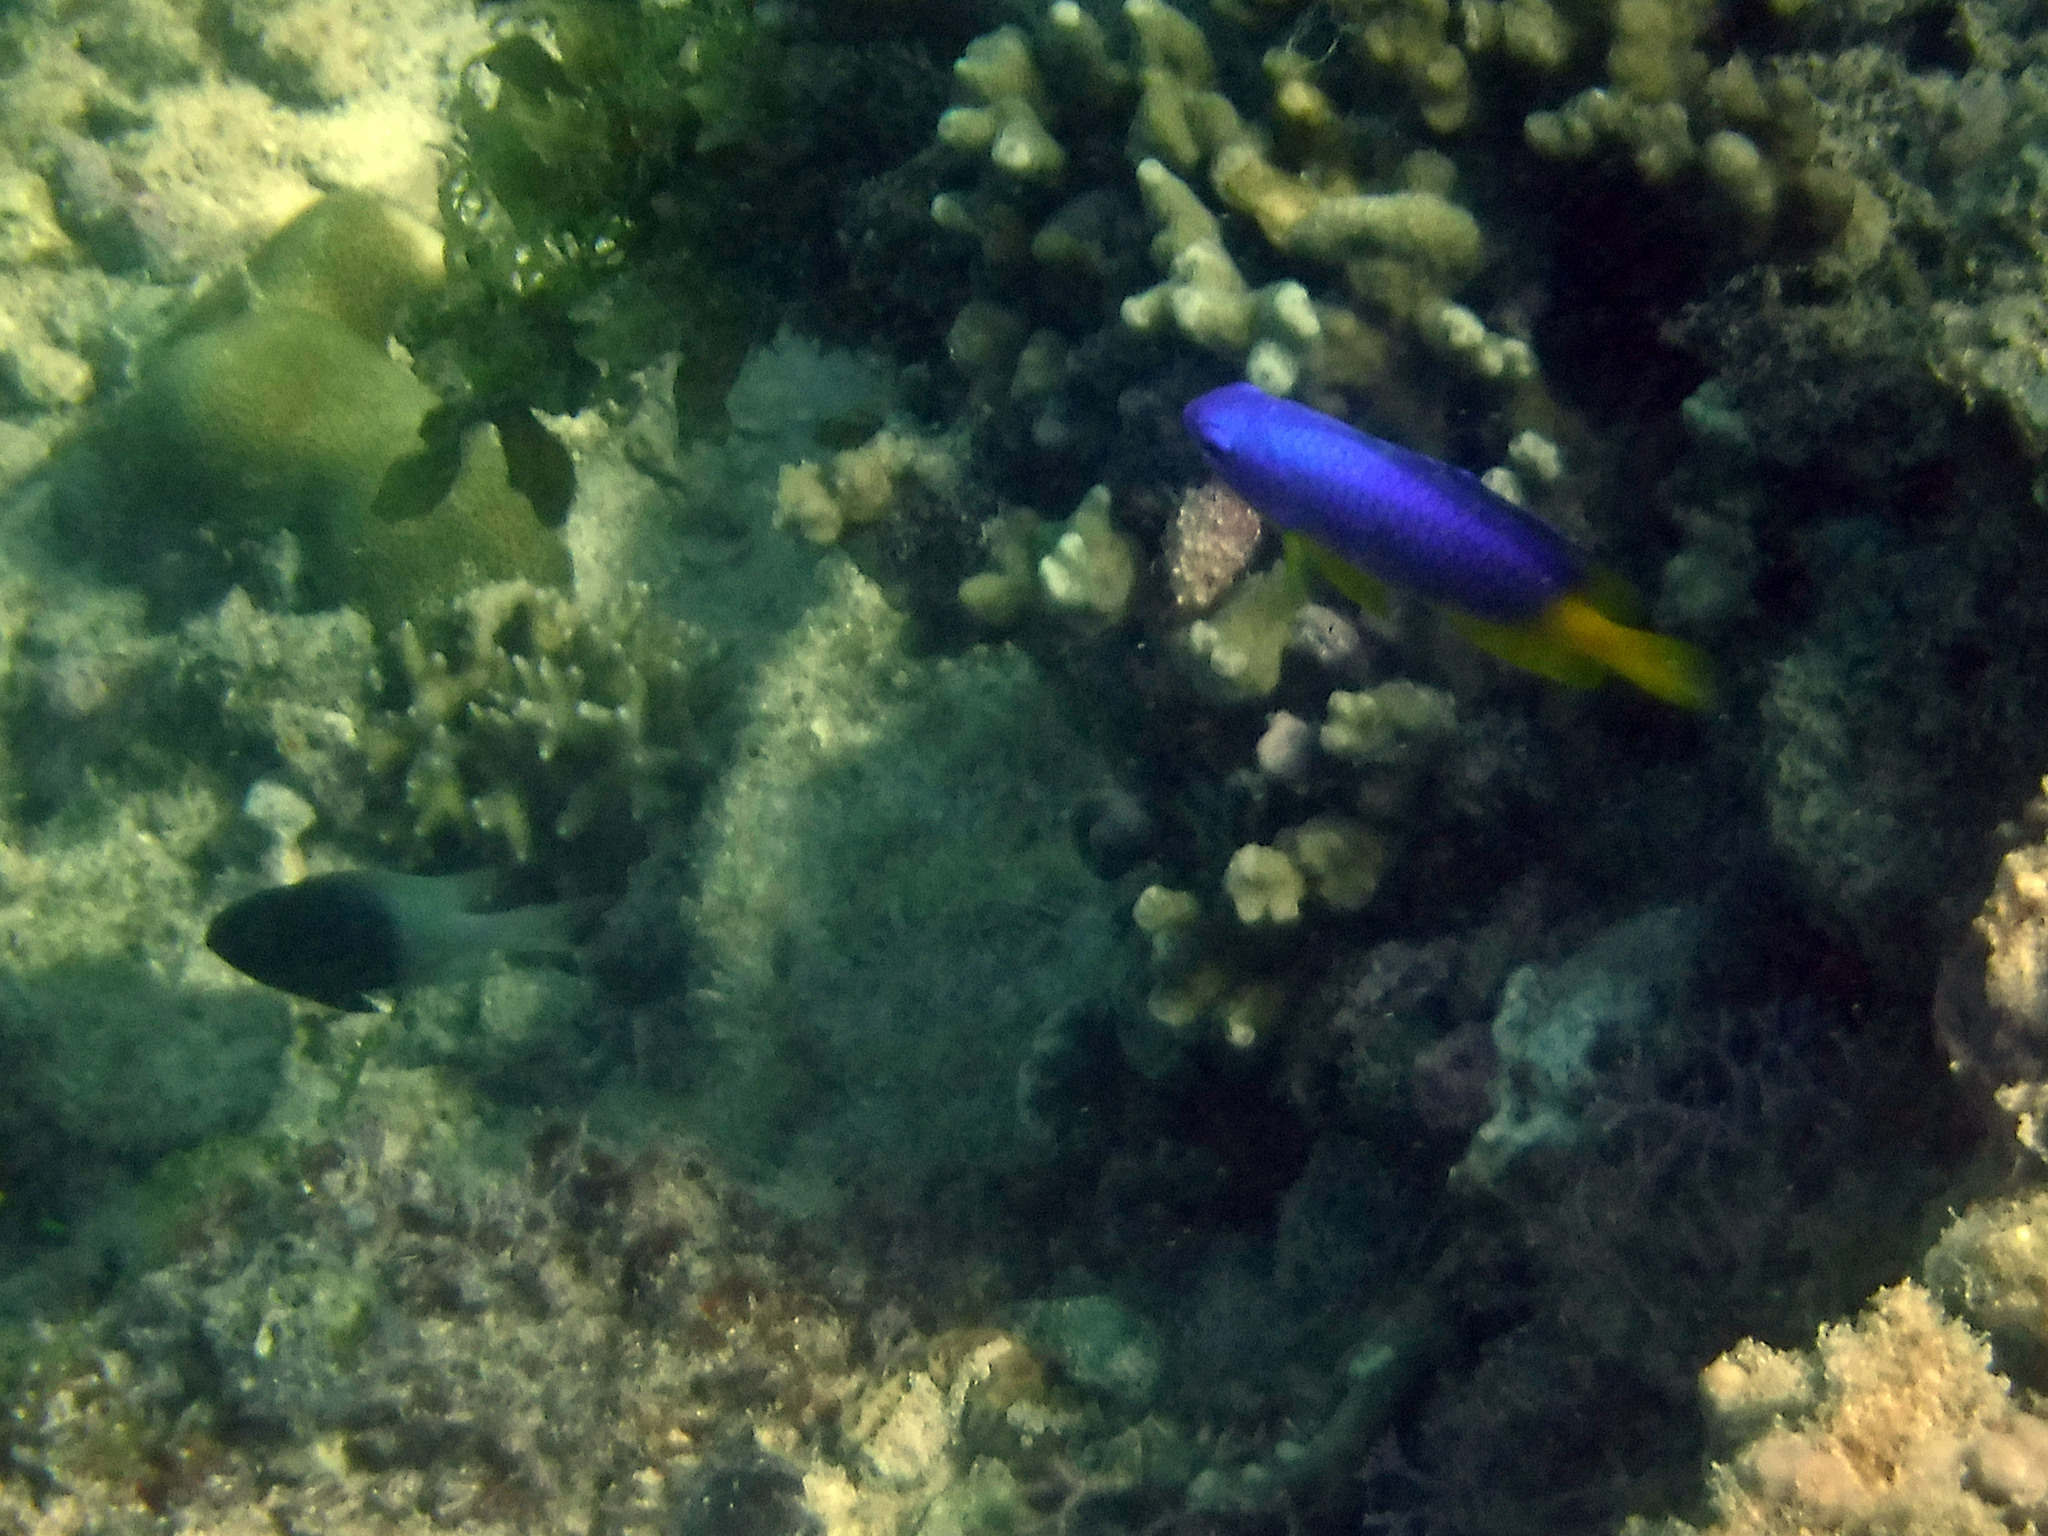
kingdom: Animalia
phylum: Chordata
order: Perciformes
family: Pomacentridae
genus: Pomacentrus
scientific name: Pomacentrus caeruleus
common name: Caerulean damsel
